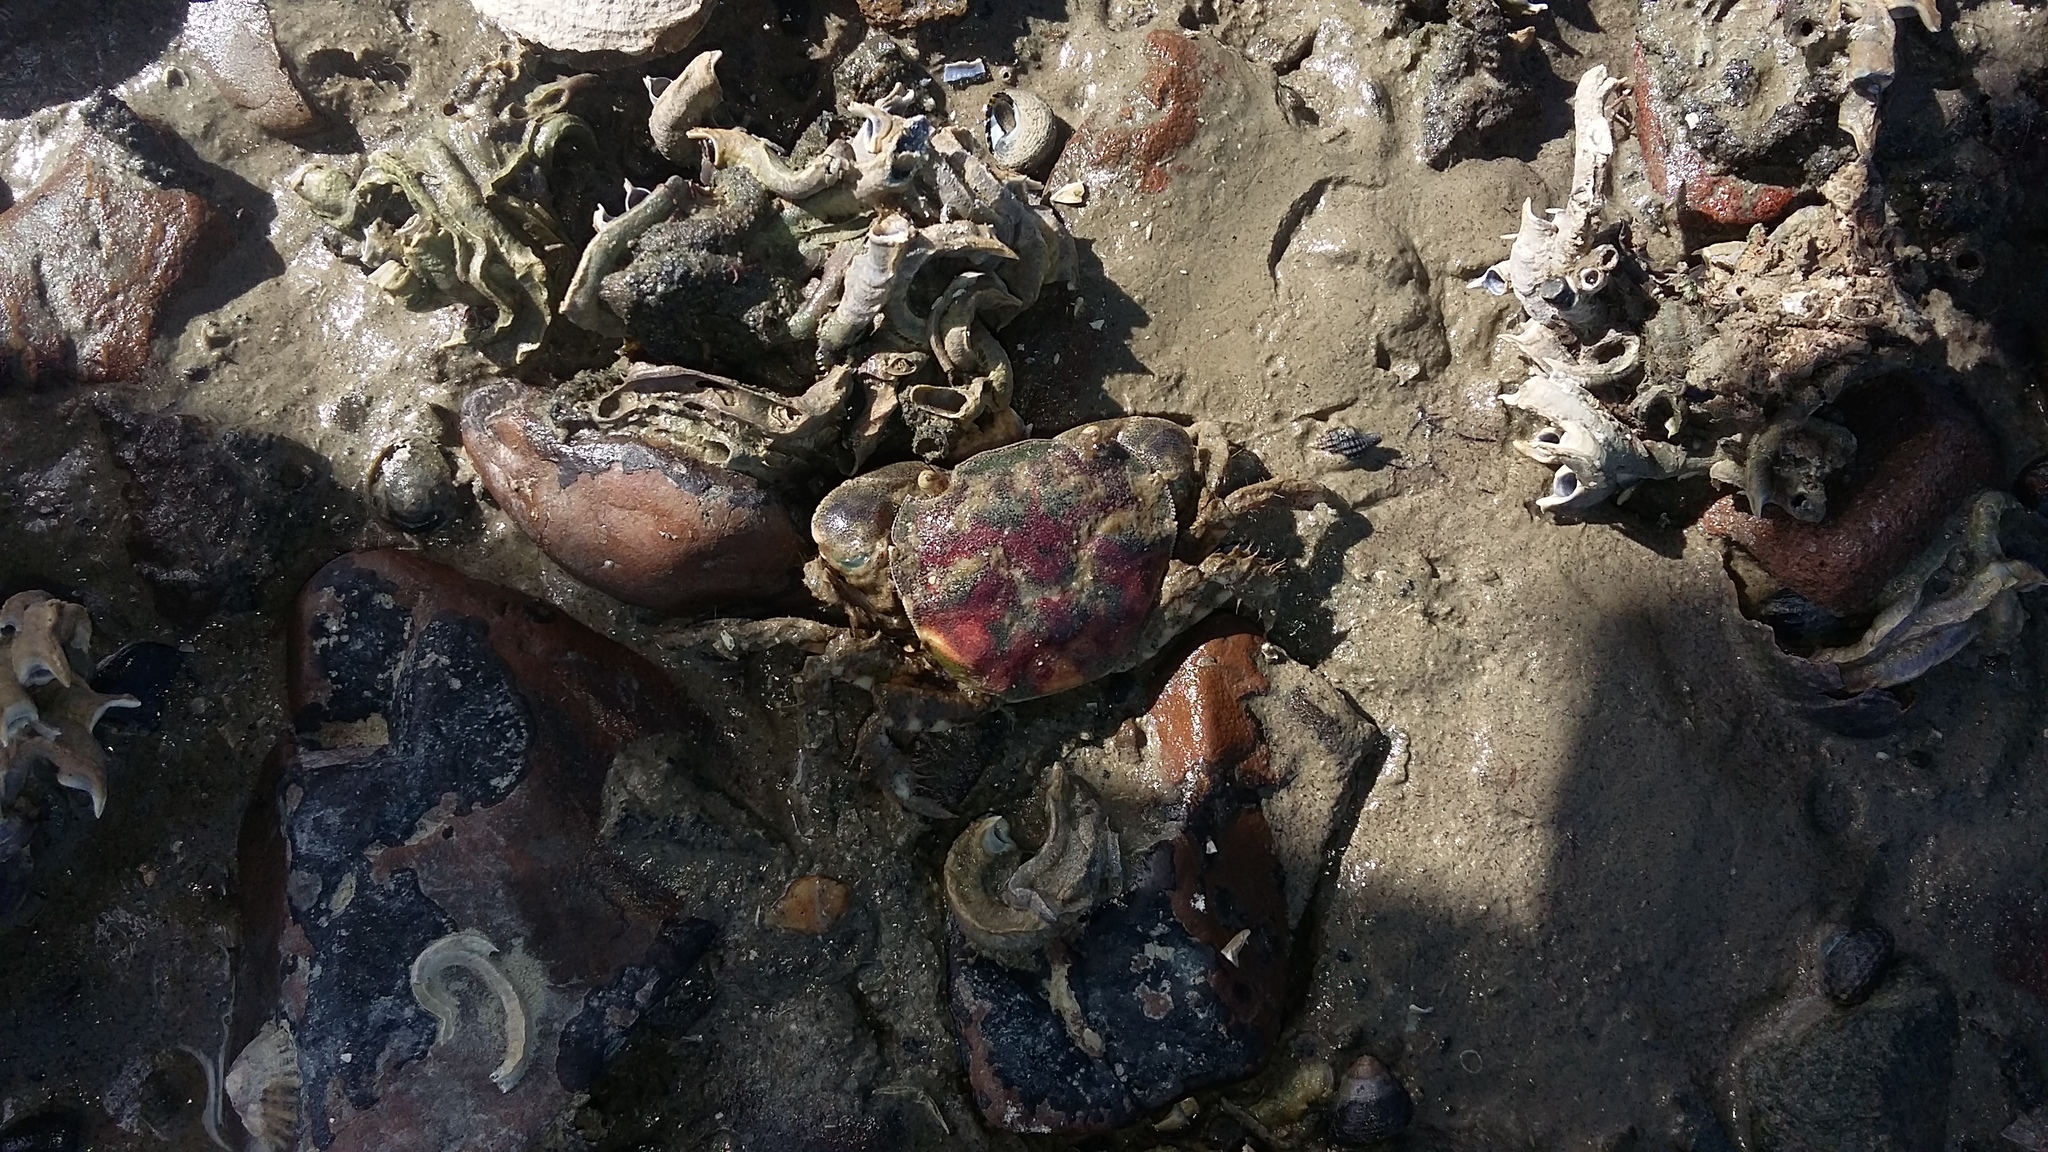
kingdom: Animalia
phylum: Arthropoda
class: Malacostraca
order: Decapoda
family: Varunidae
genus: Hemigrapsus
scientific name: Hemigrapsus crenulatus
